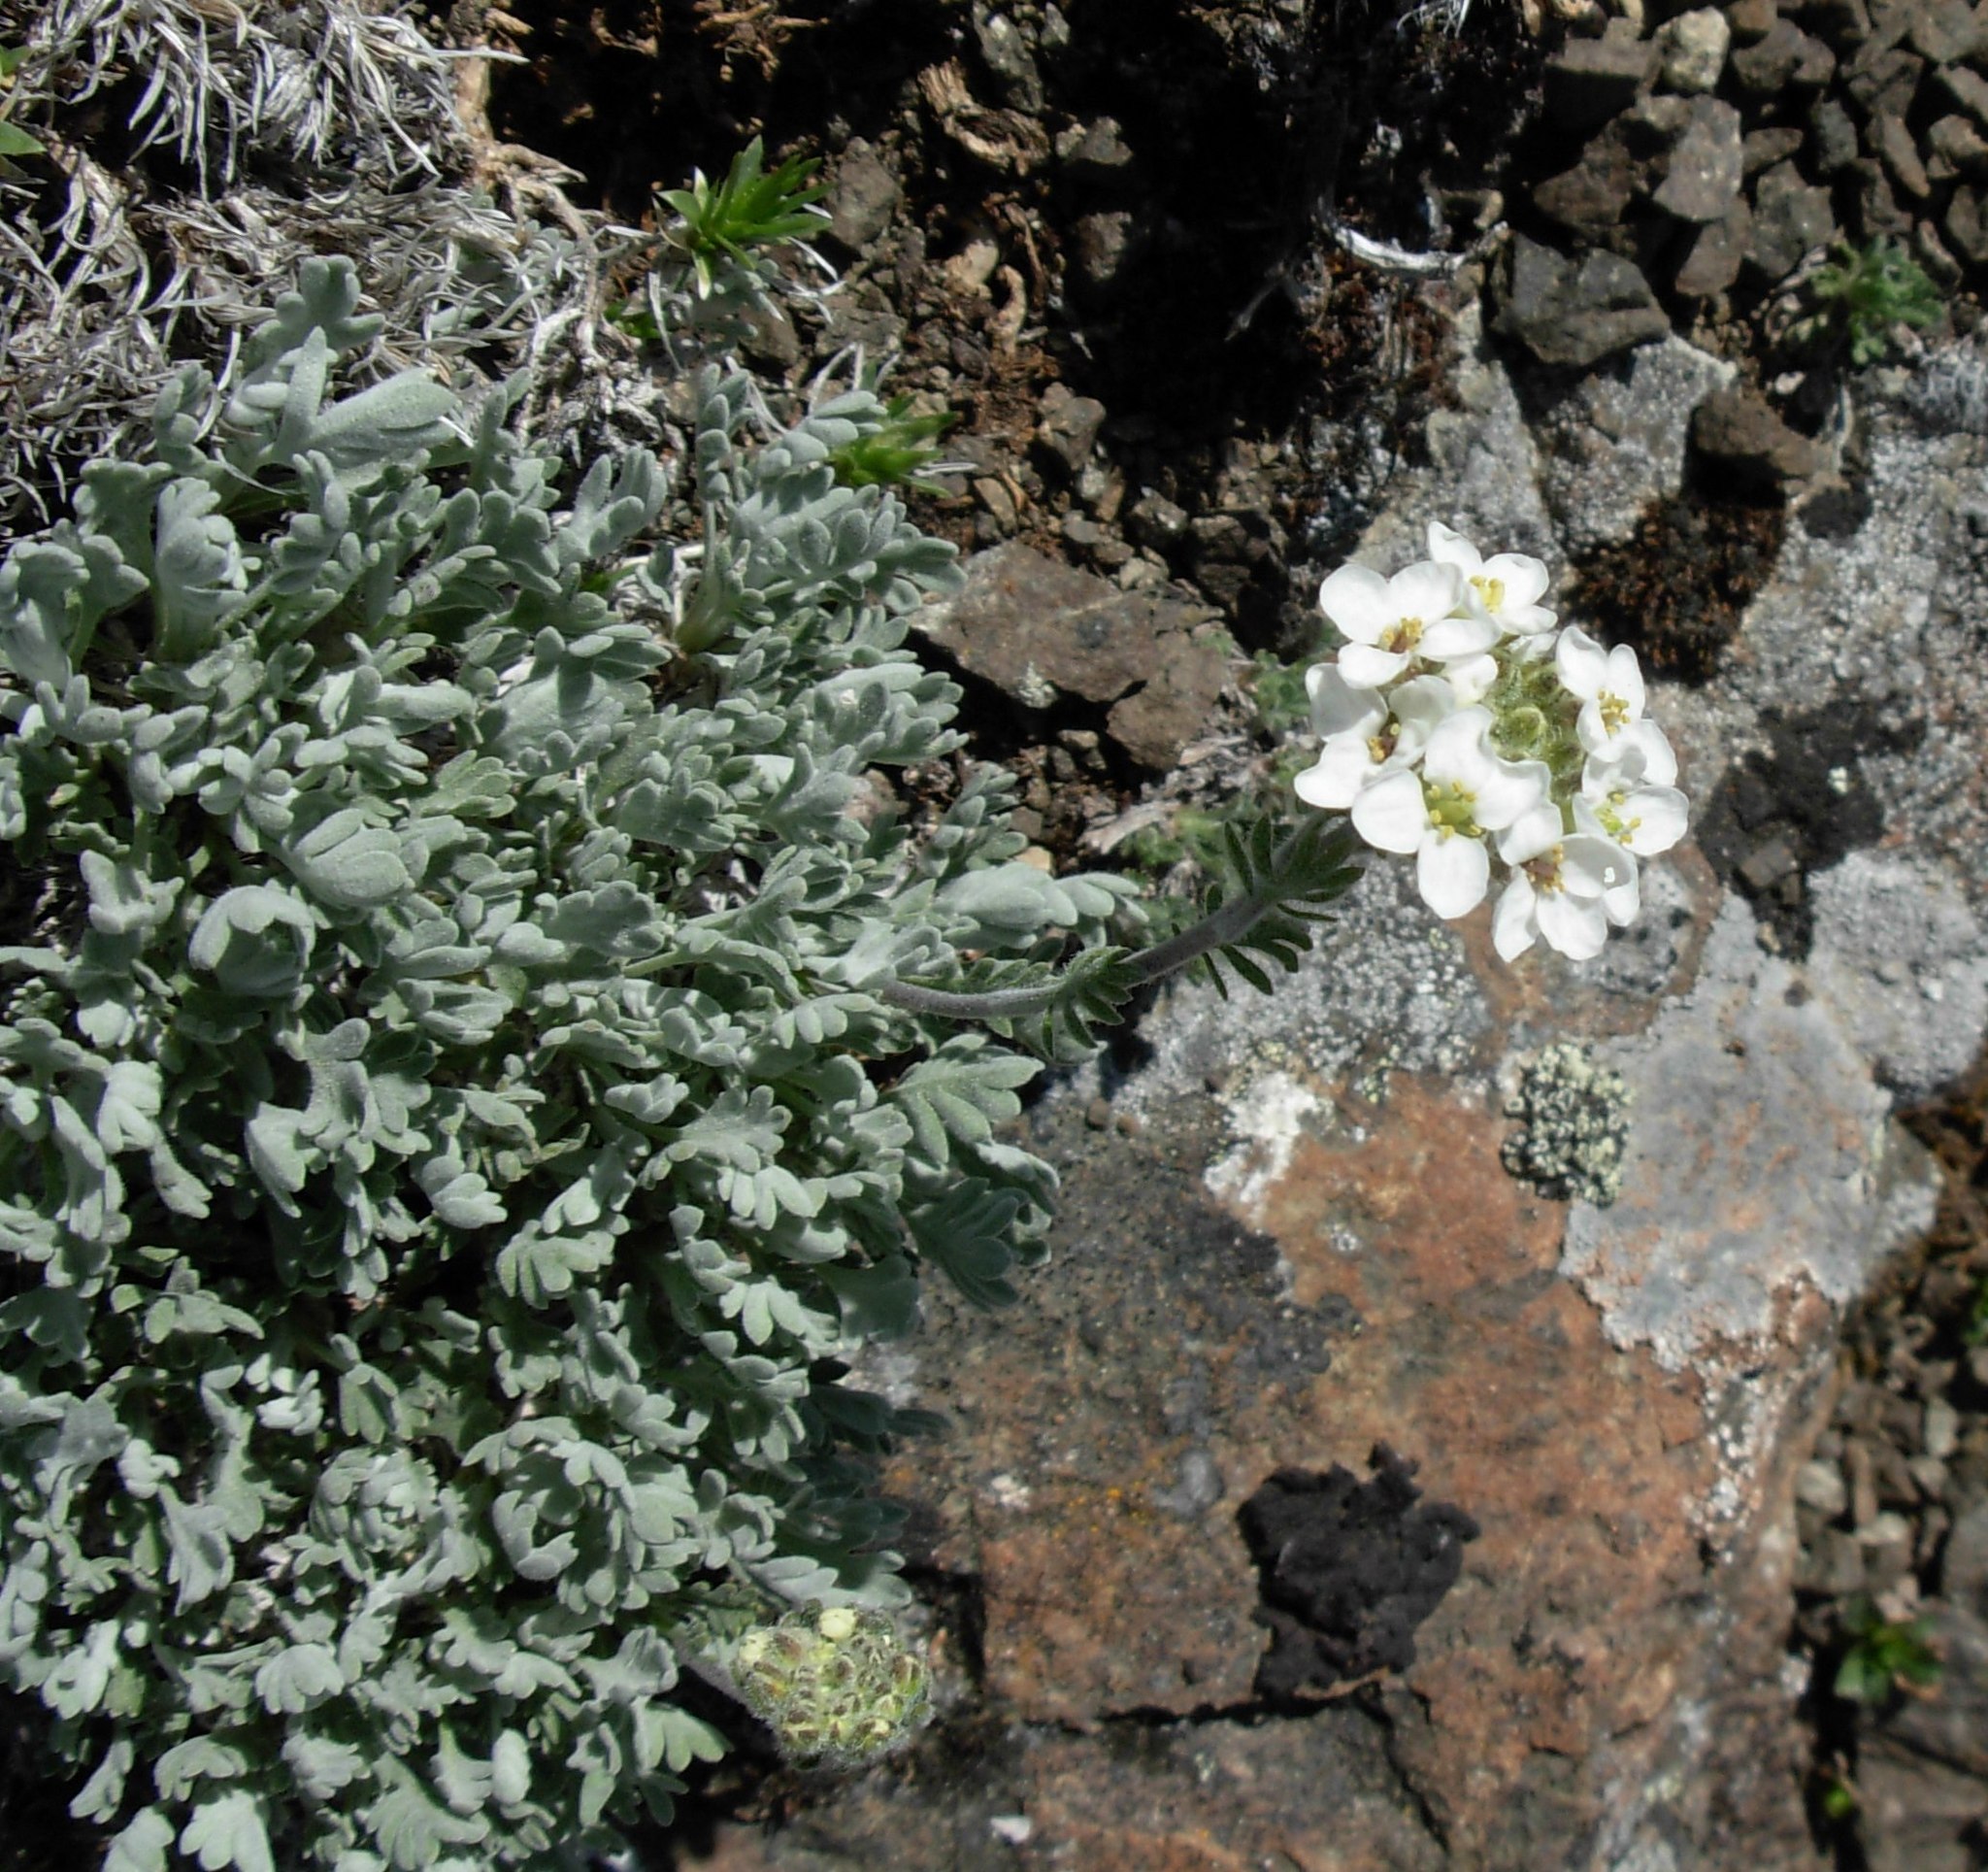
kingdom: Plantae
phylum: Tracheophyta
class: Magnoliopsida
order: Brassicales
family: Brassicaceae
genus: Smelowskia
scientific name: Smelowskia americana
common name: American false candytuft
